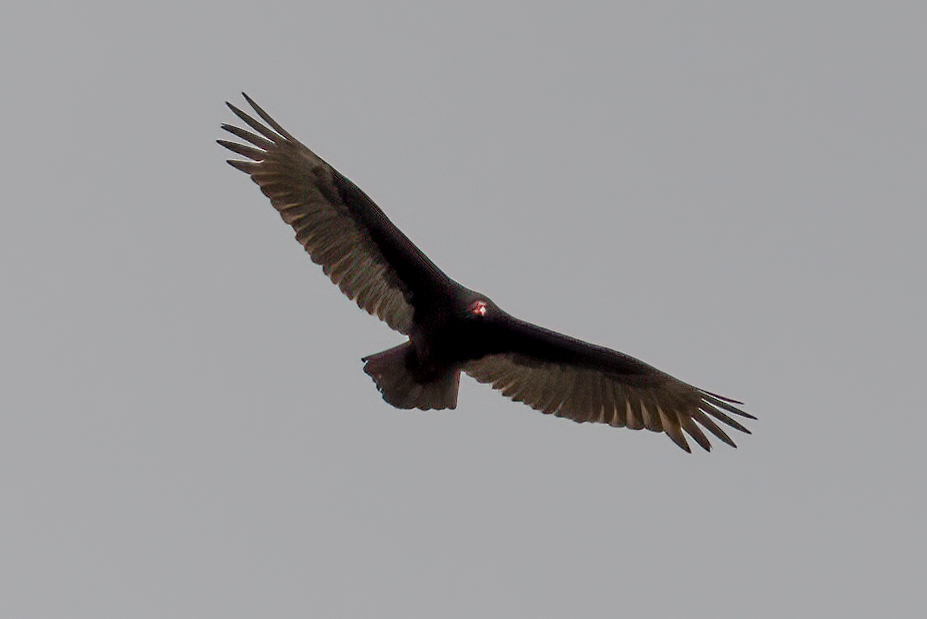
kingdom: Animalia
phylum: Chordata
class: Aves
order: Accipitriformes
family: Cathartidae
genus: Cathartes
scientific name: Cathartes aura
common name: Turkey vulture
